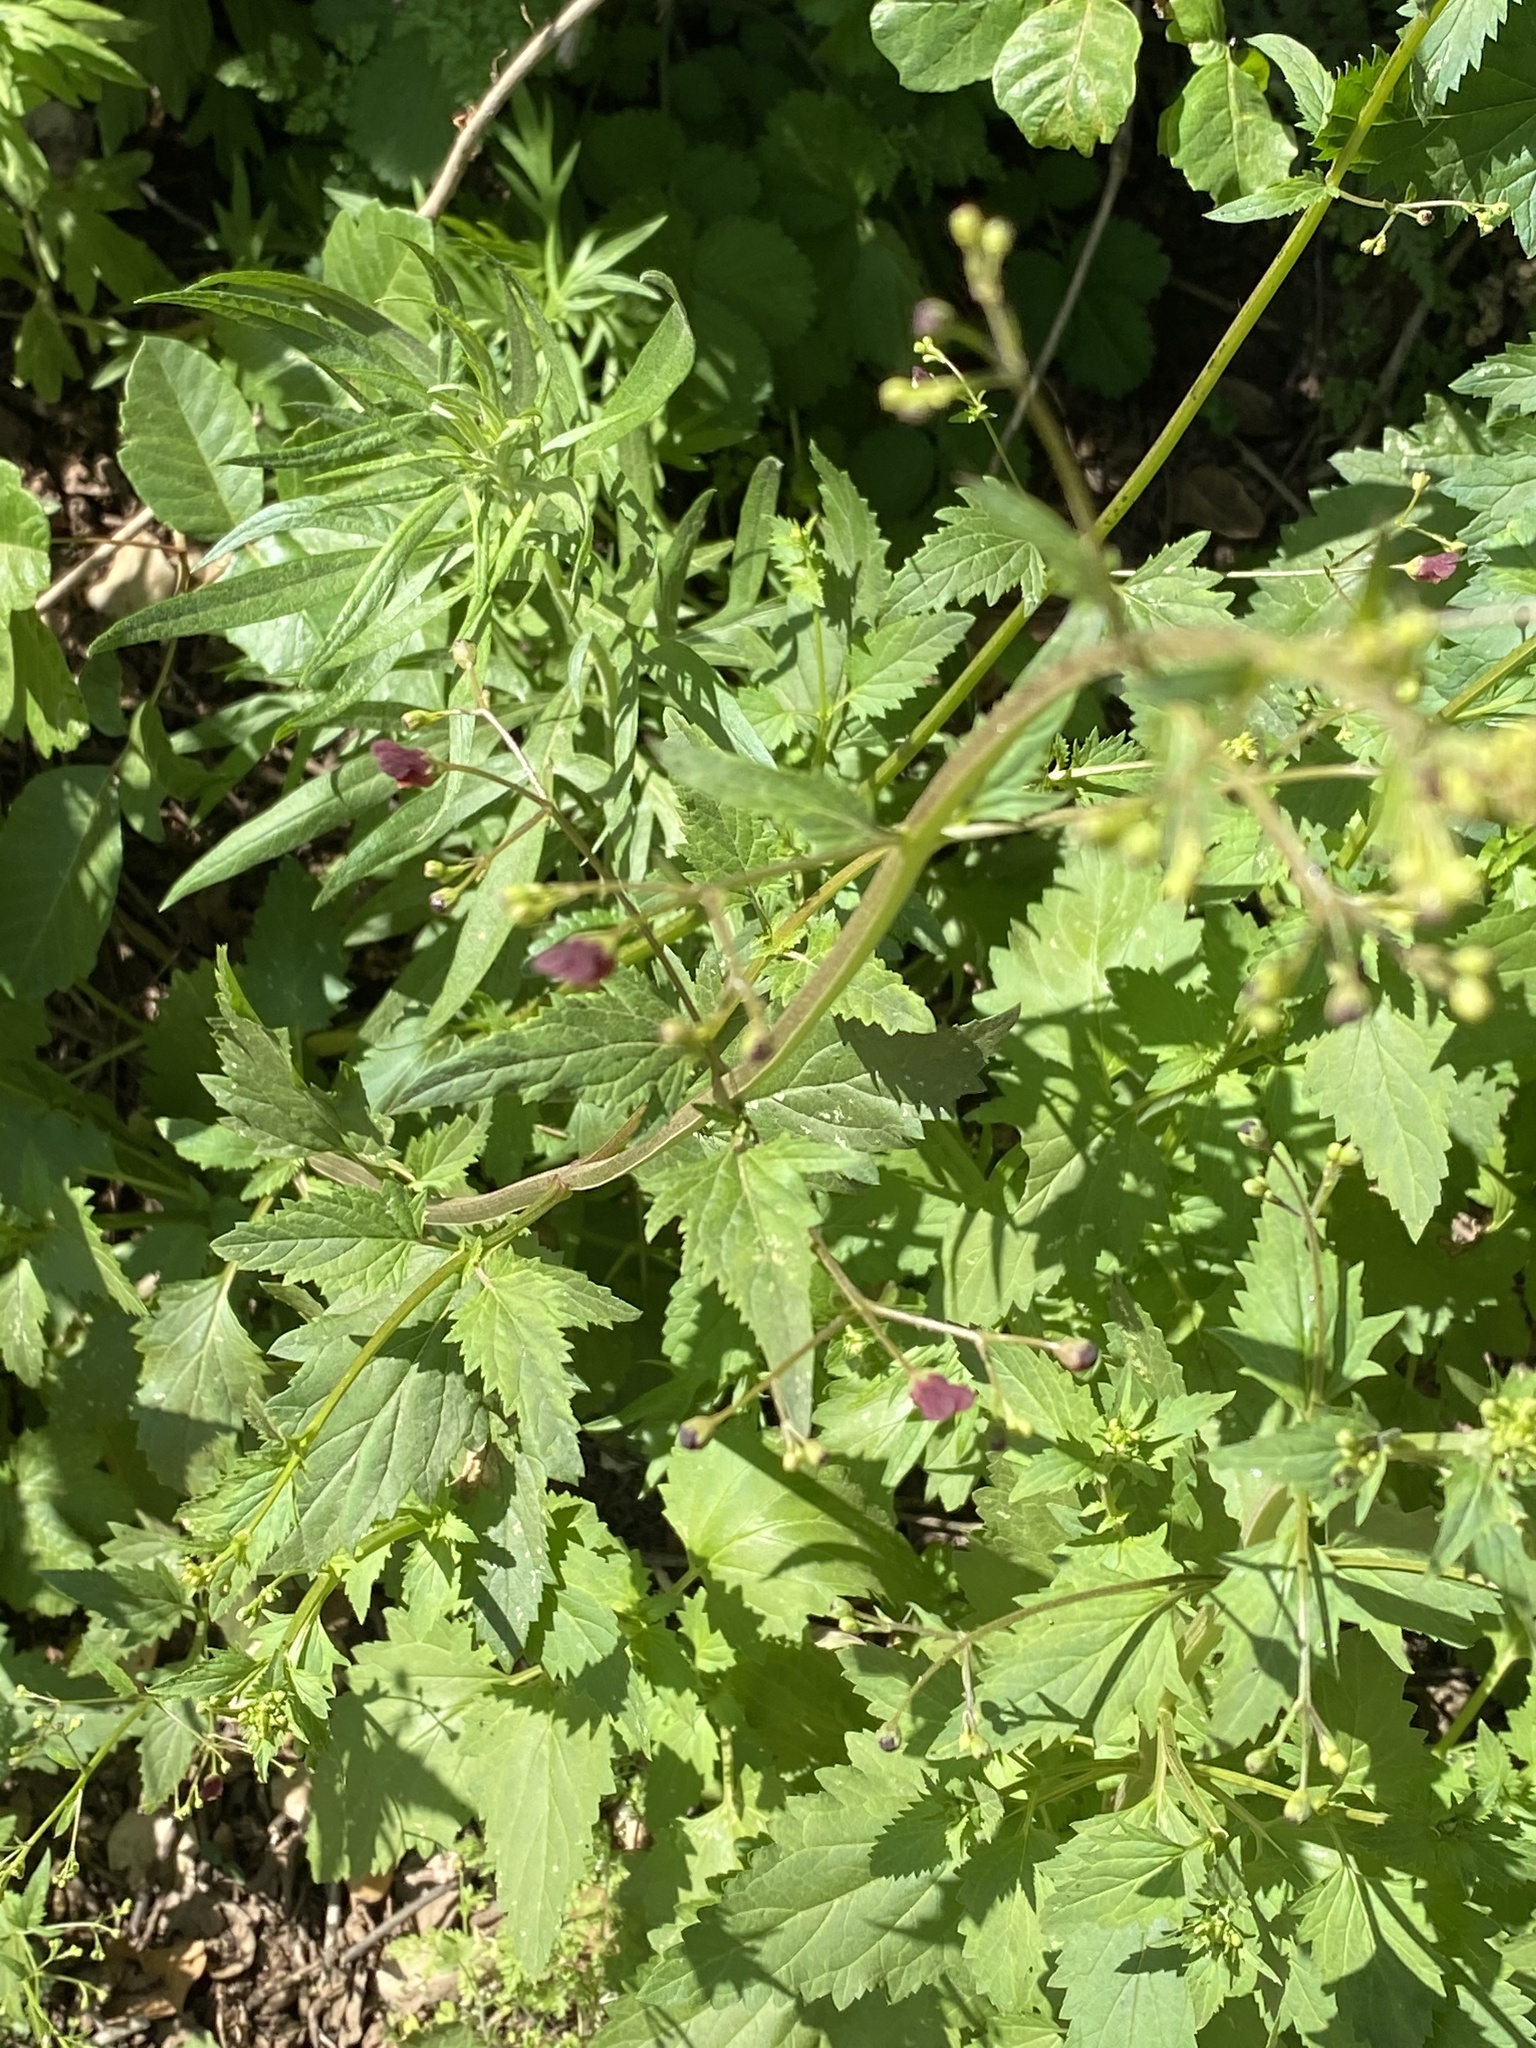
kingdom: Plantae
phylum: Tracheophyta
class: Magnoliopsida
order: Lamiales
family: Scrophulariaceae
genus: Scrophularia
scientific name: Scrophularia californica
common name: California figwort
